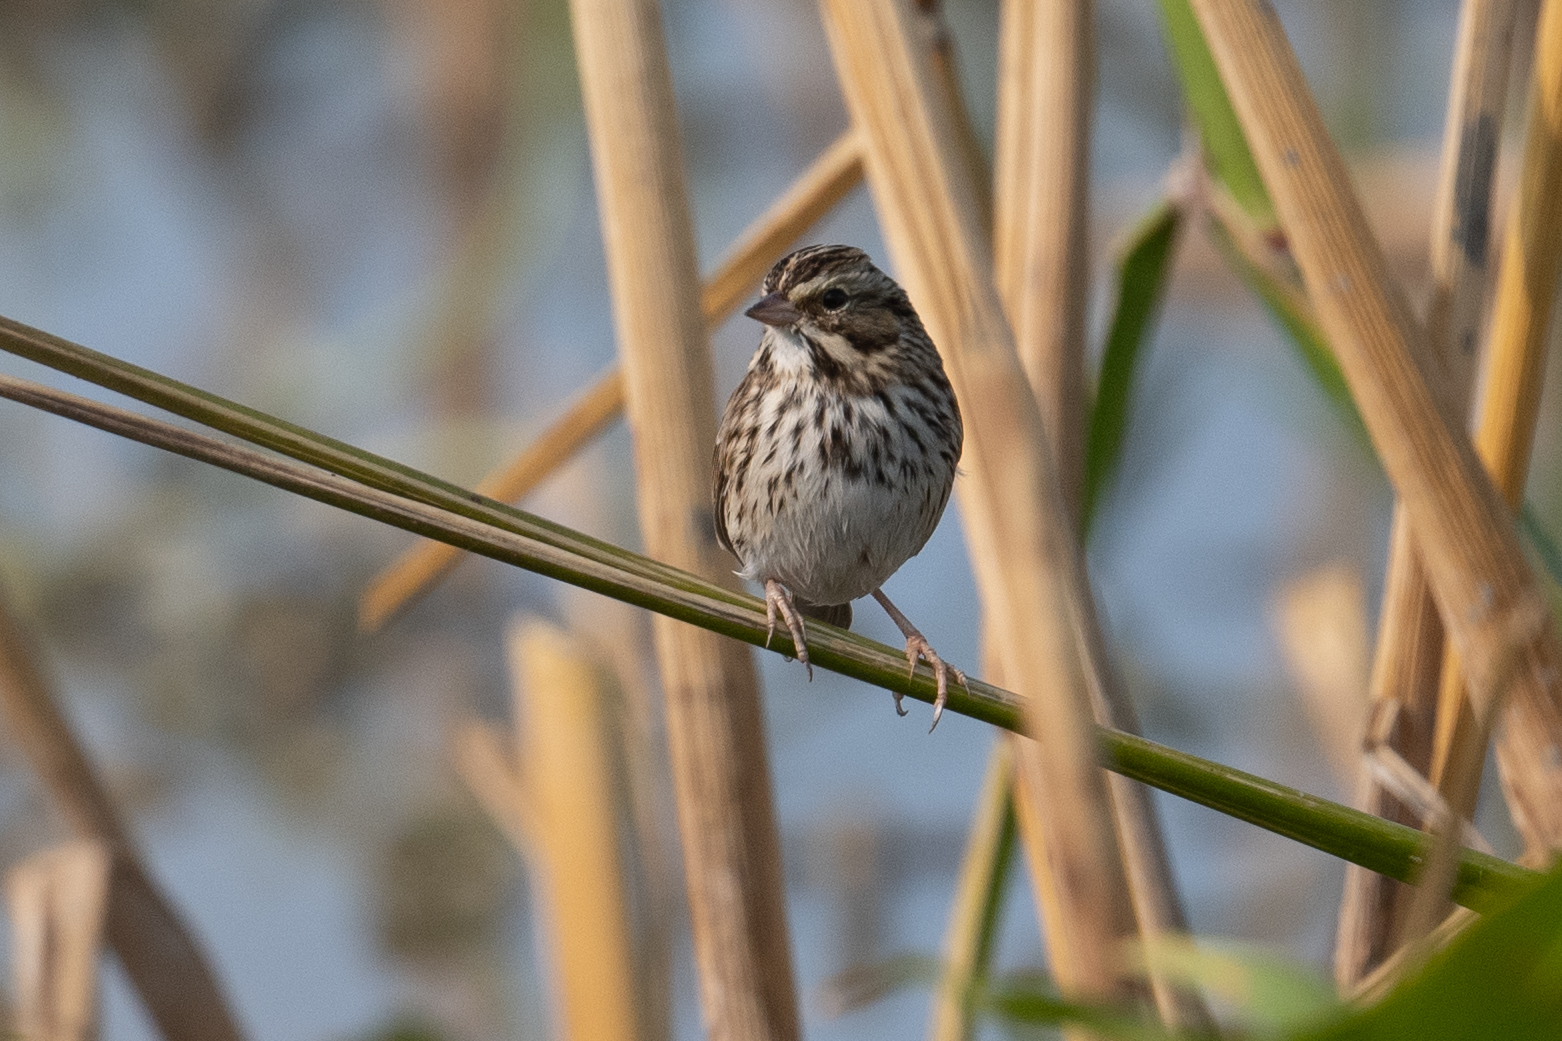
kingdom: Animalia
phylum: Chordata
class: Aves
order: Passeriformes
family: Passerellidae
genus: Passerculus
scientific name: Passerculus sandwichensis
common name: Savannah sparrow
